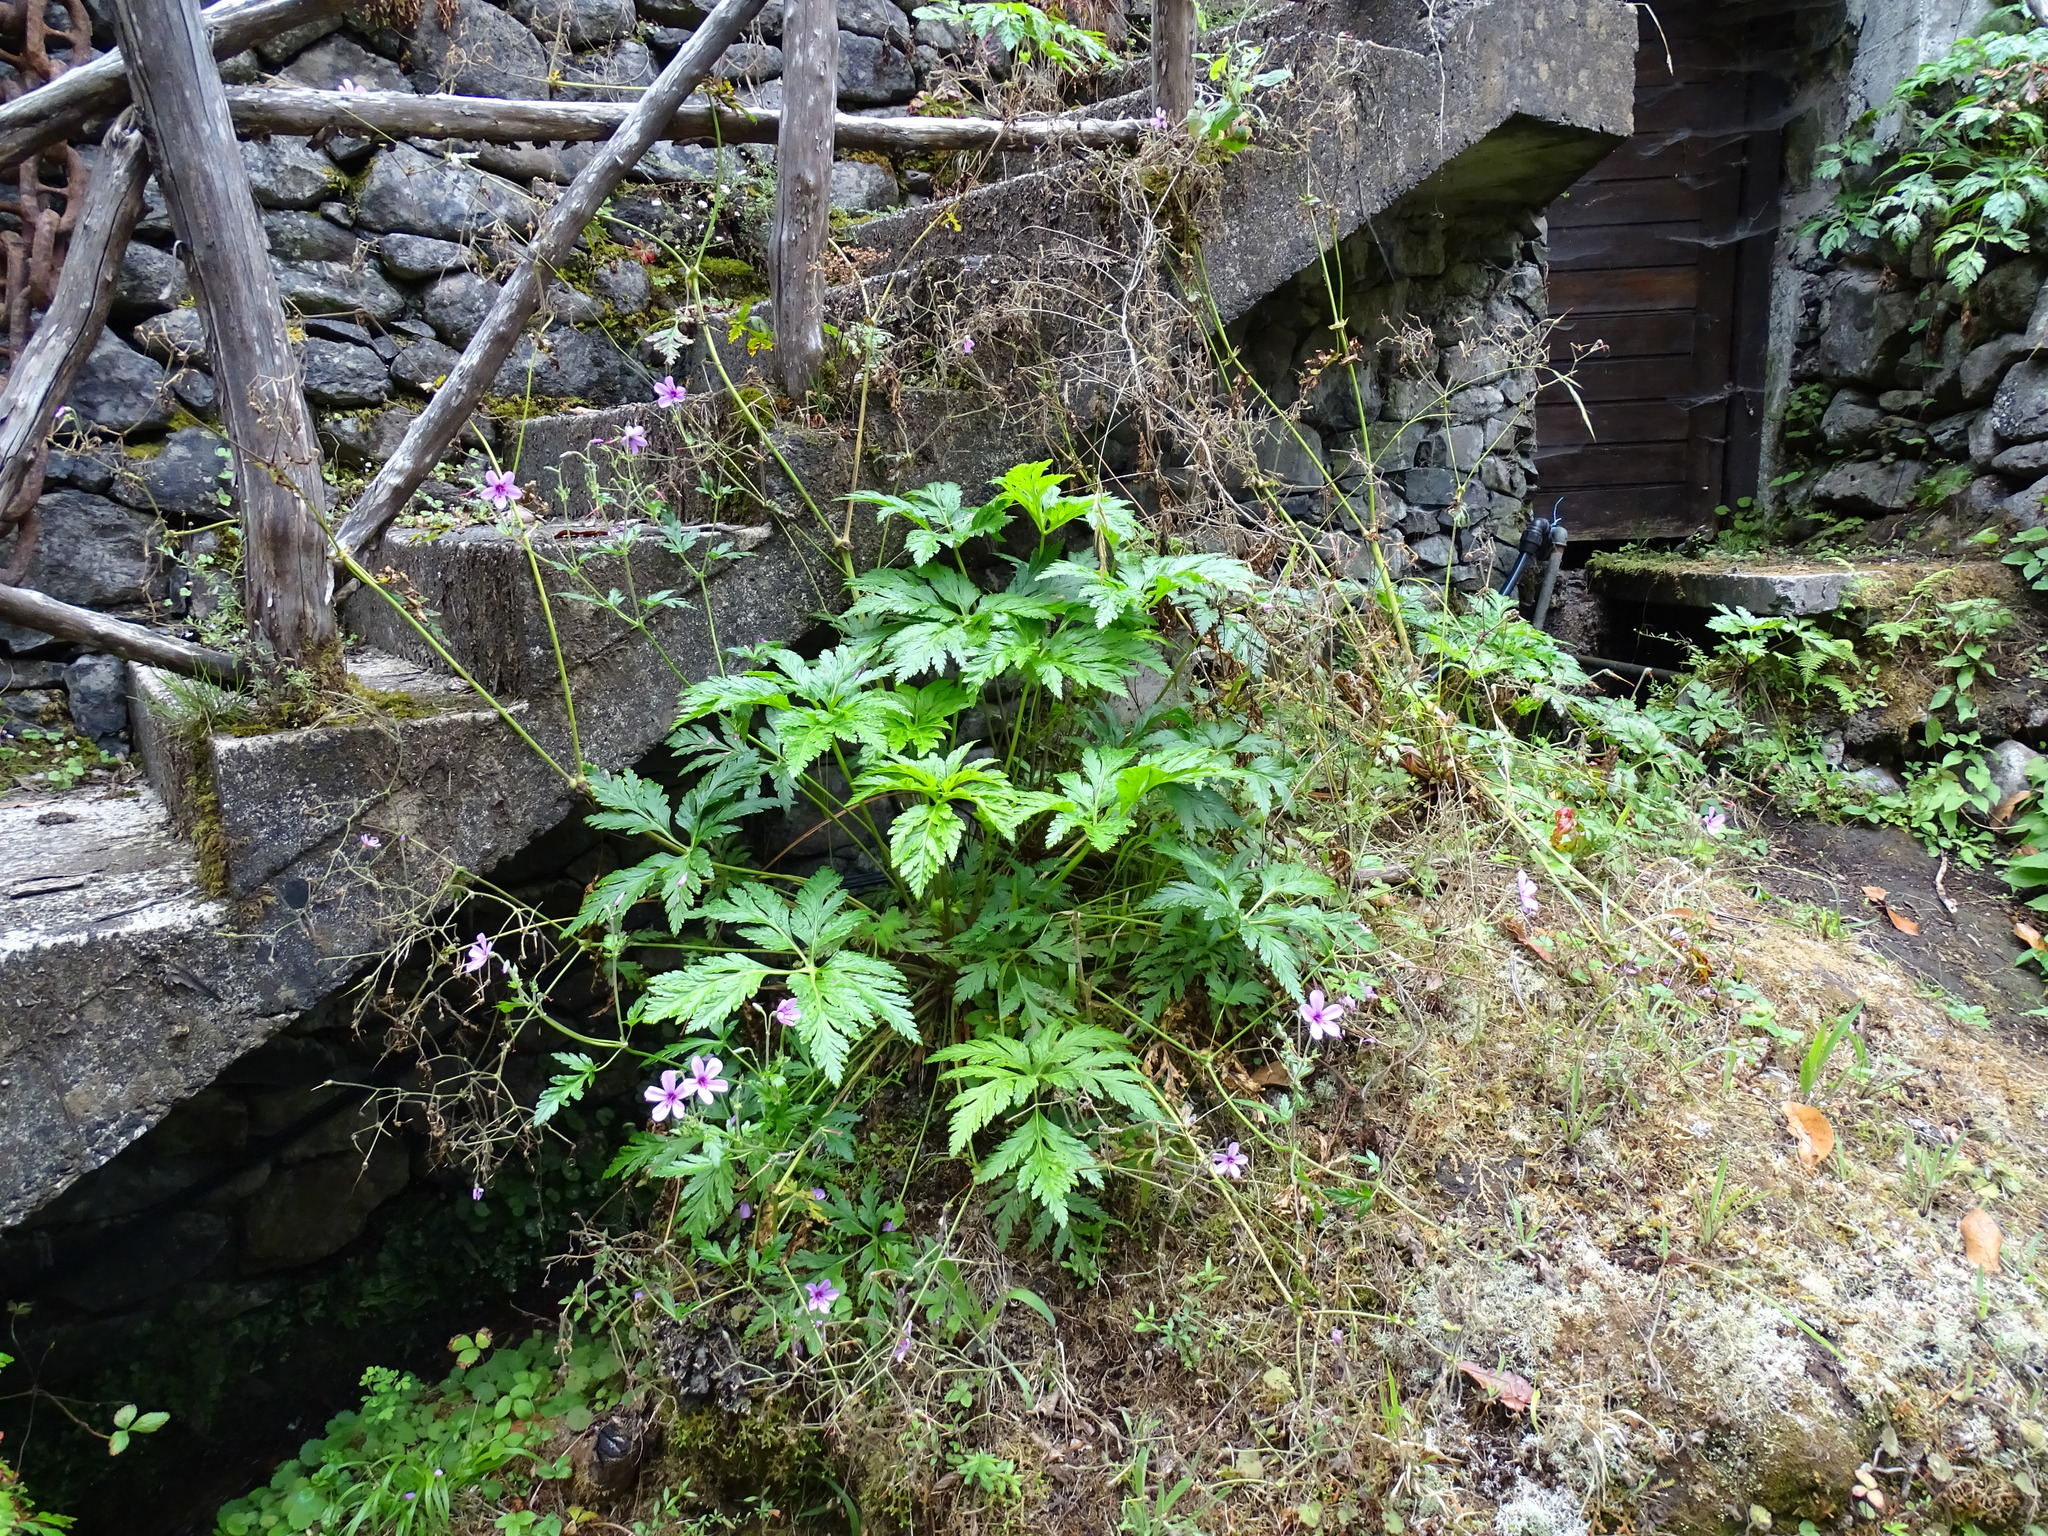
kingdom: Plantae
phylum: Tracheophyta
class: Magnoliopsida
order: Geraniales
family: Geraniaceae
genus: Geranium
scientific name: Geranium palmatum
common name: Canary island geranium
